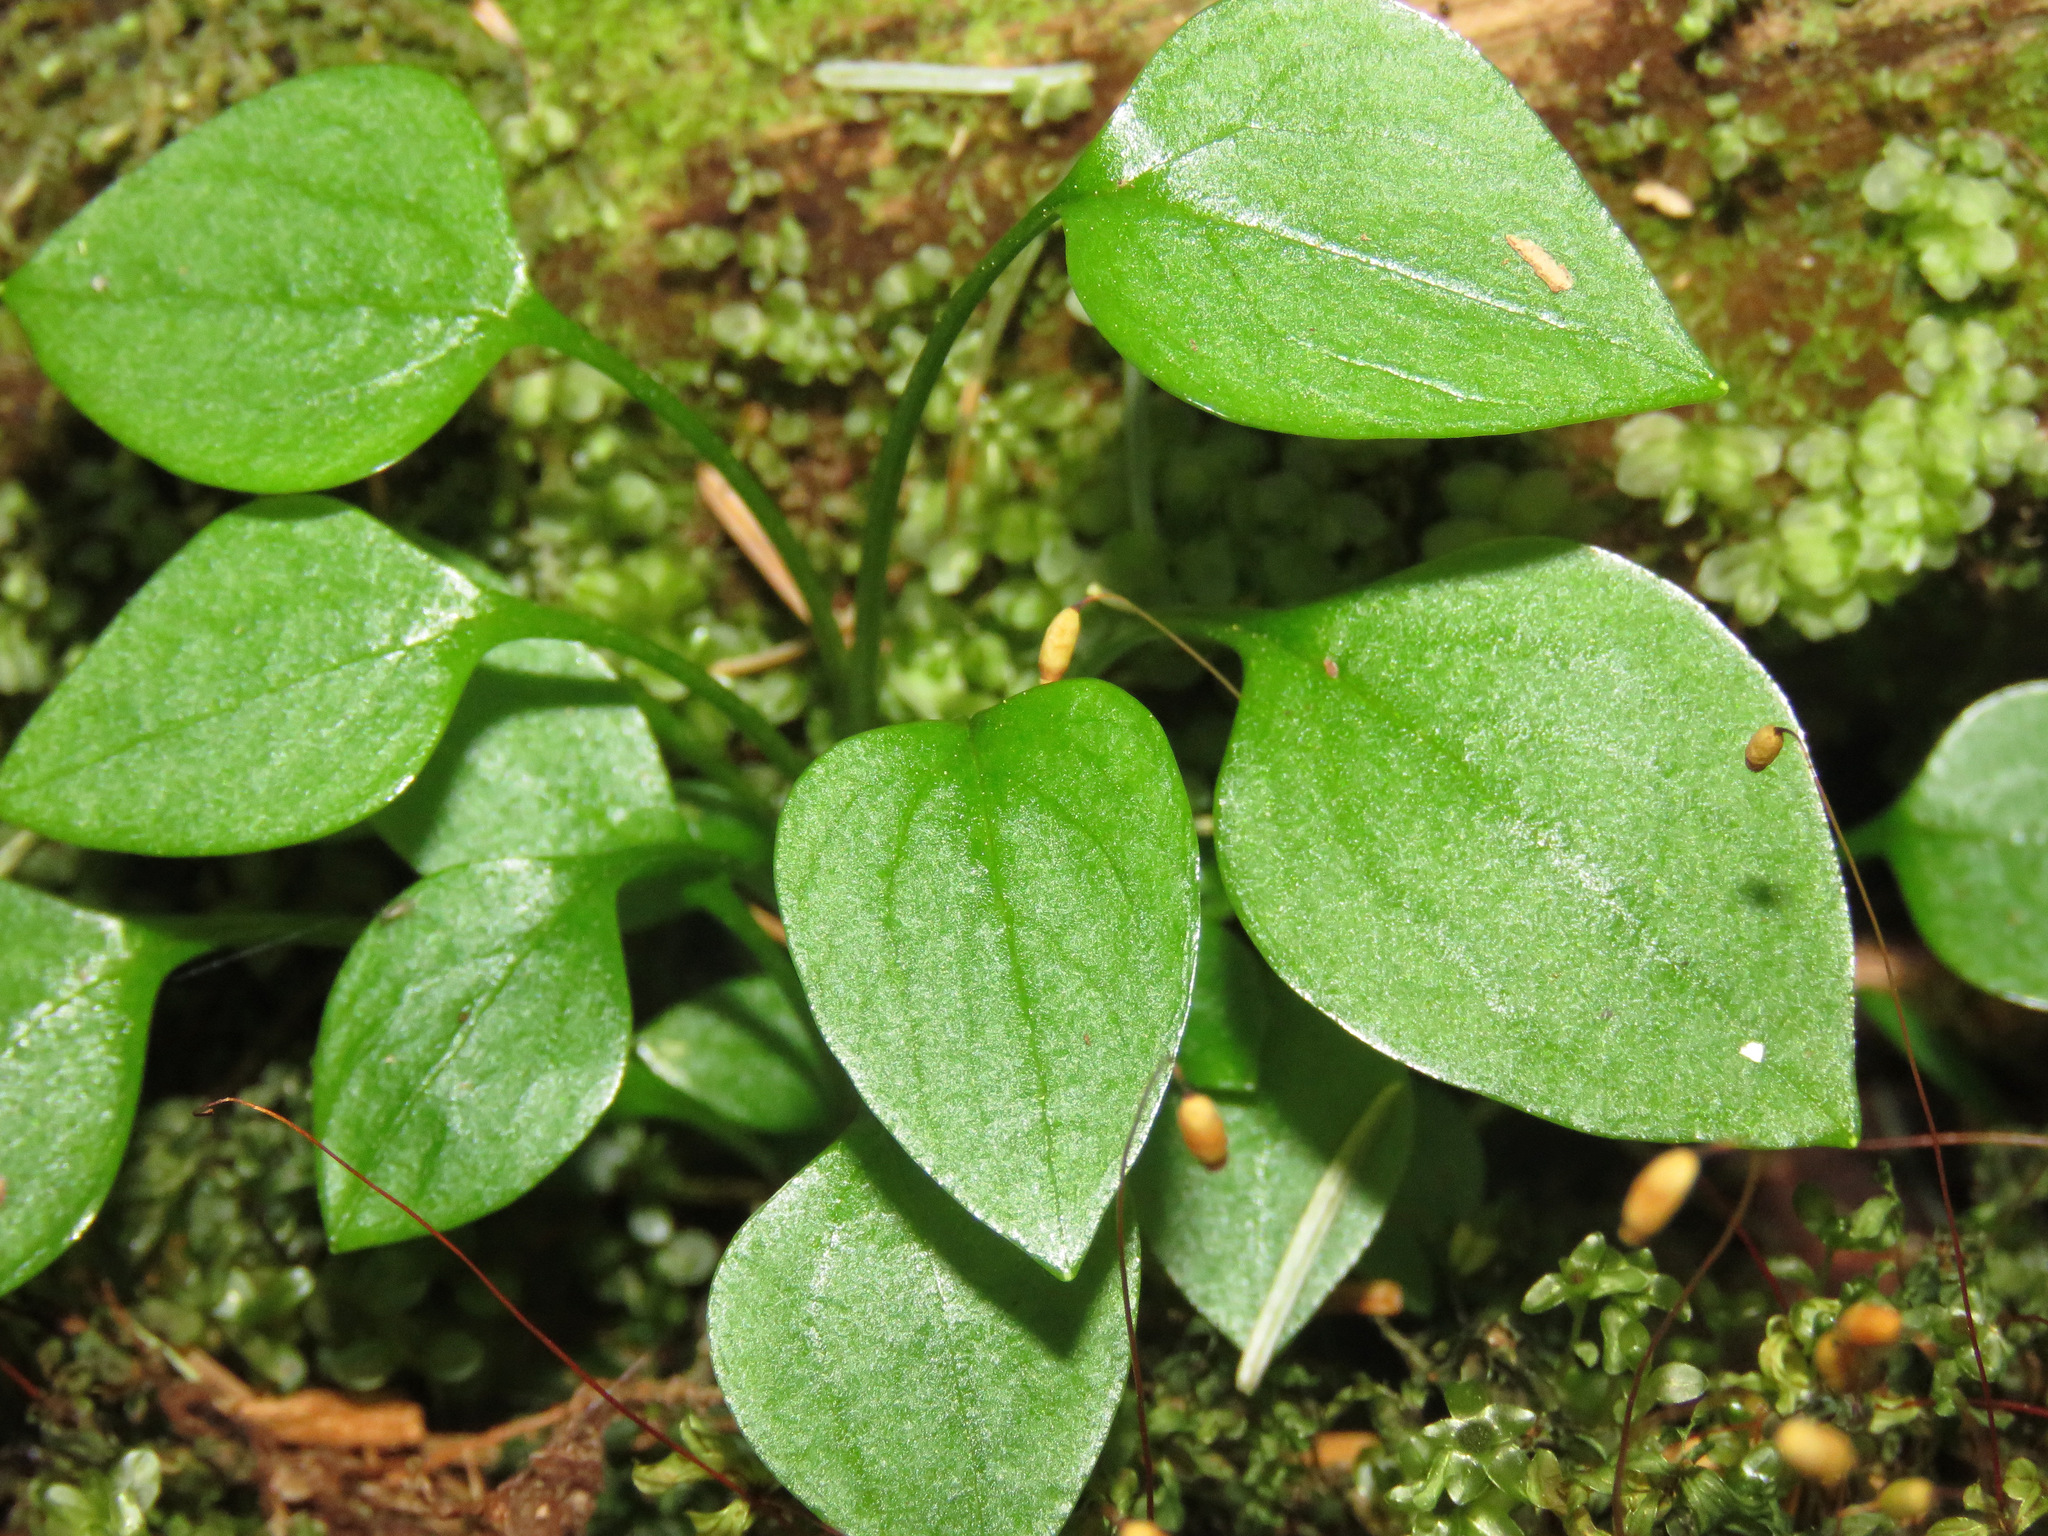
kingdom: Plantae
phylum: Tracheophyta
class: Magnoliopsida
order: Caryophyllales
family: Montiaceae
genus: Claytonia
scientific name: Claytonia sibirica
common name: Pink purslane
